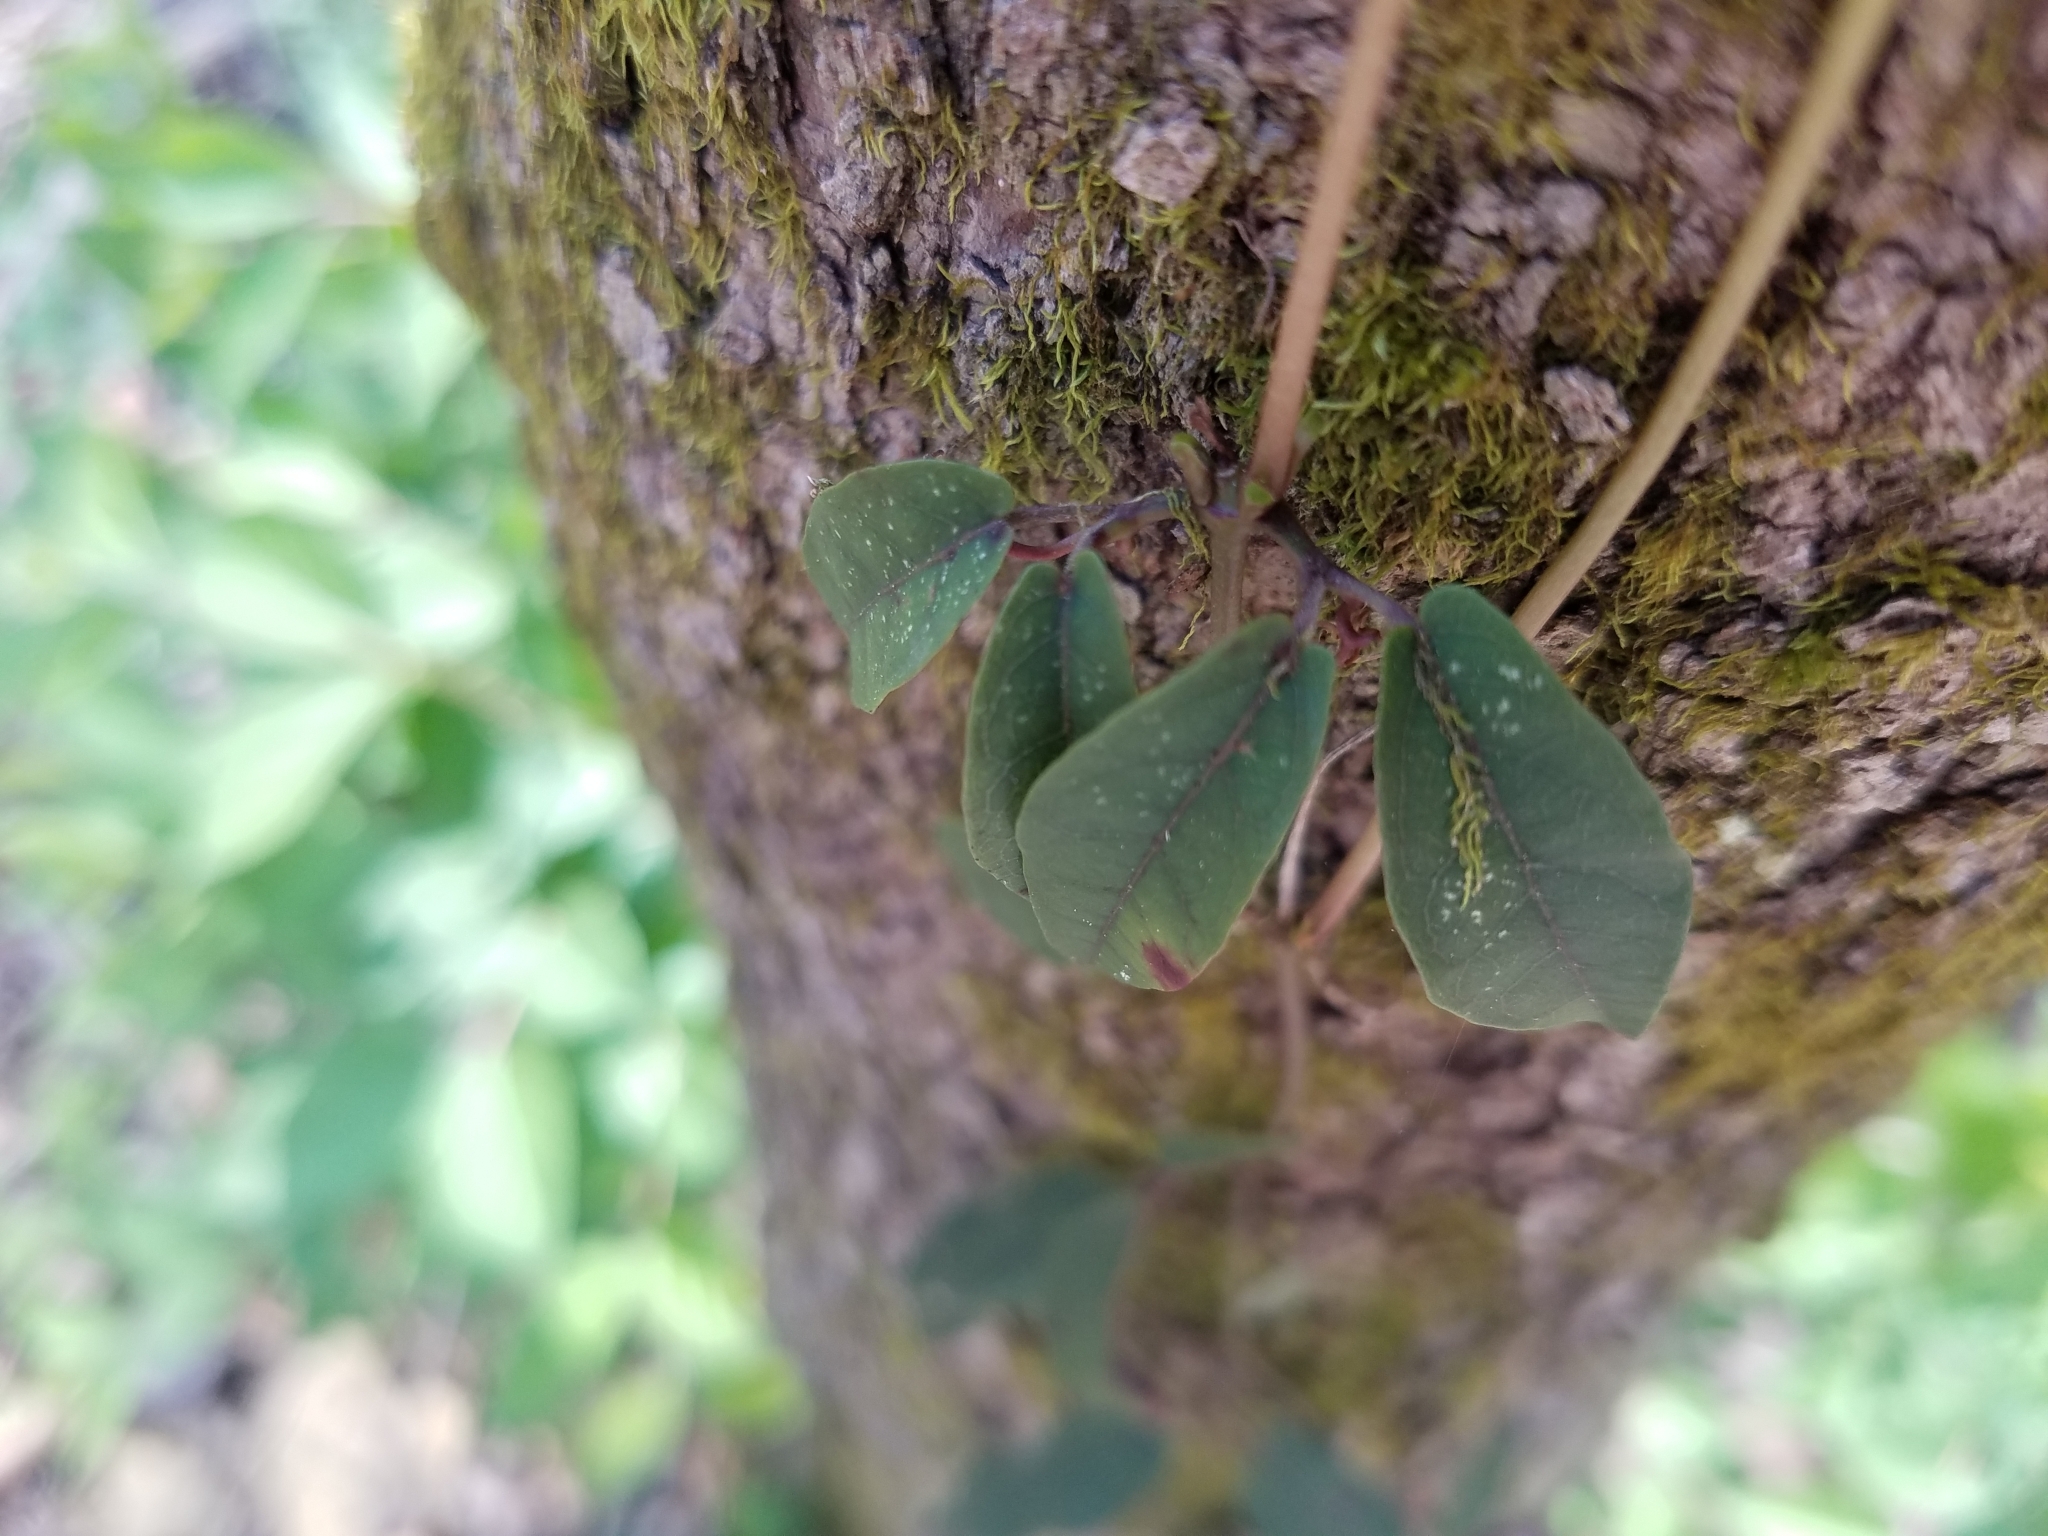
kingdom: Plantae
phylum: Tracheophyta
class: Magnoliopsida
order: Lamiales
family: Bignoniaceae
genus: Bignonia
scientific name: Bignonia capreolata
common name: Crossvine
